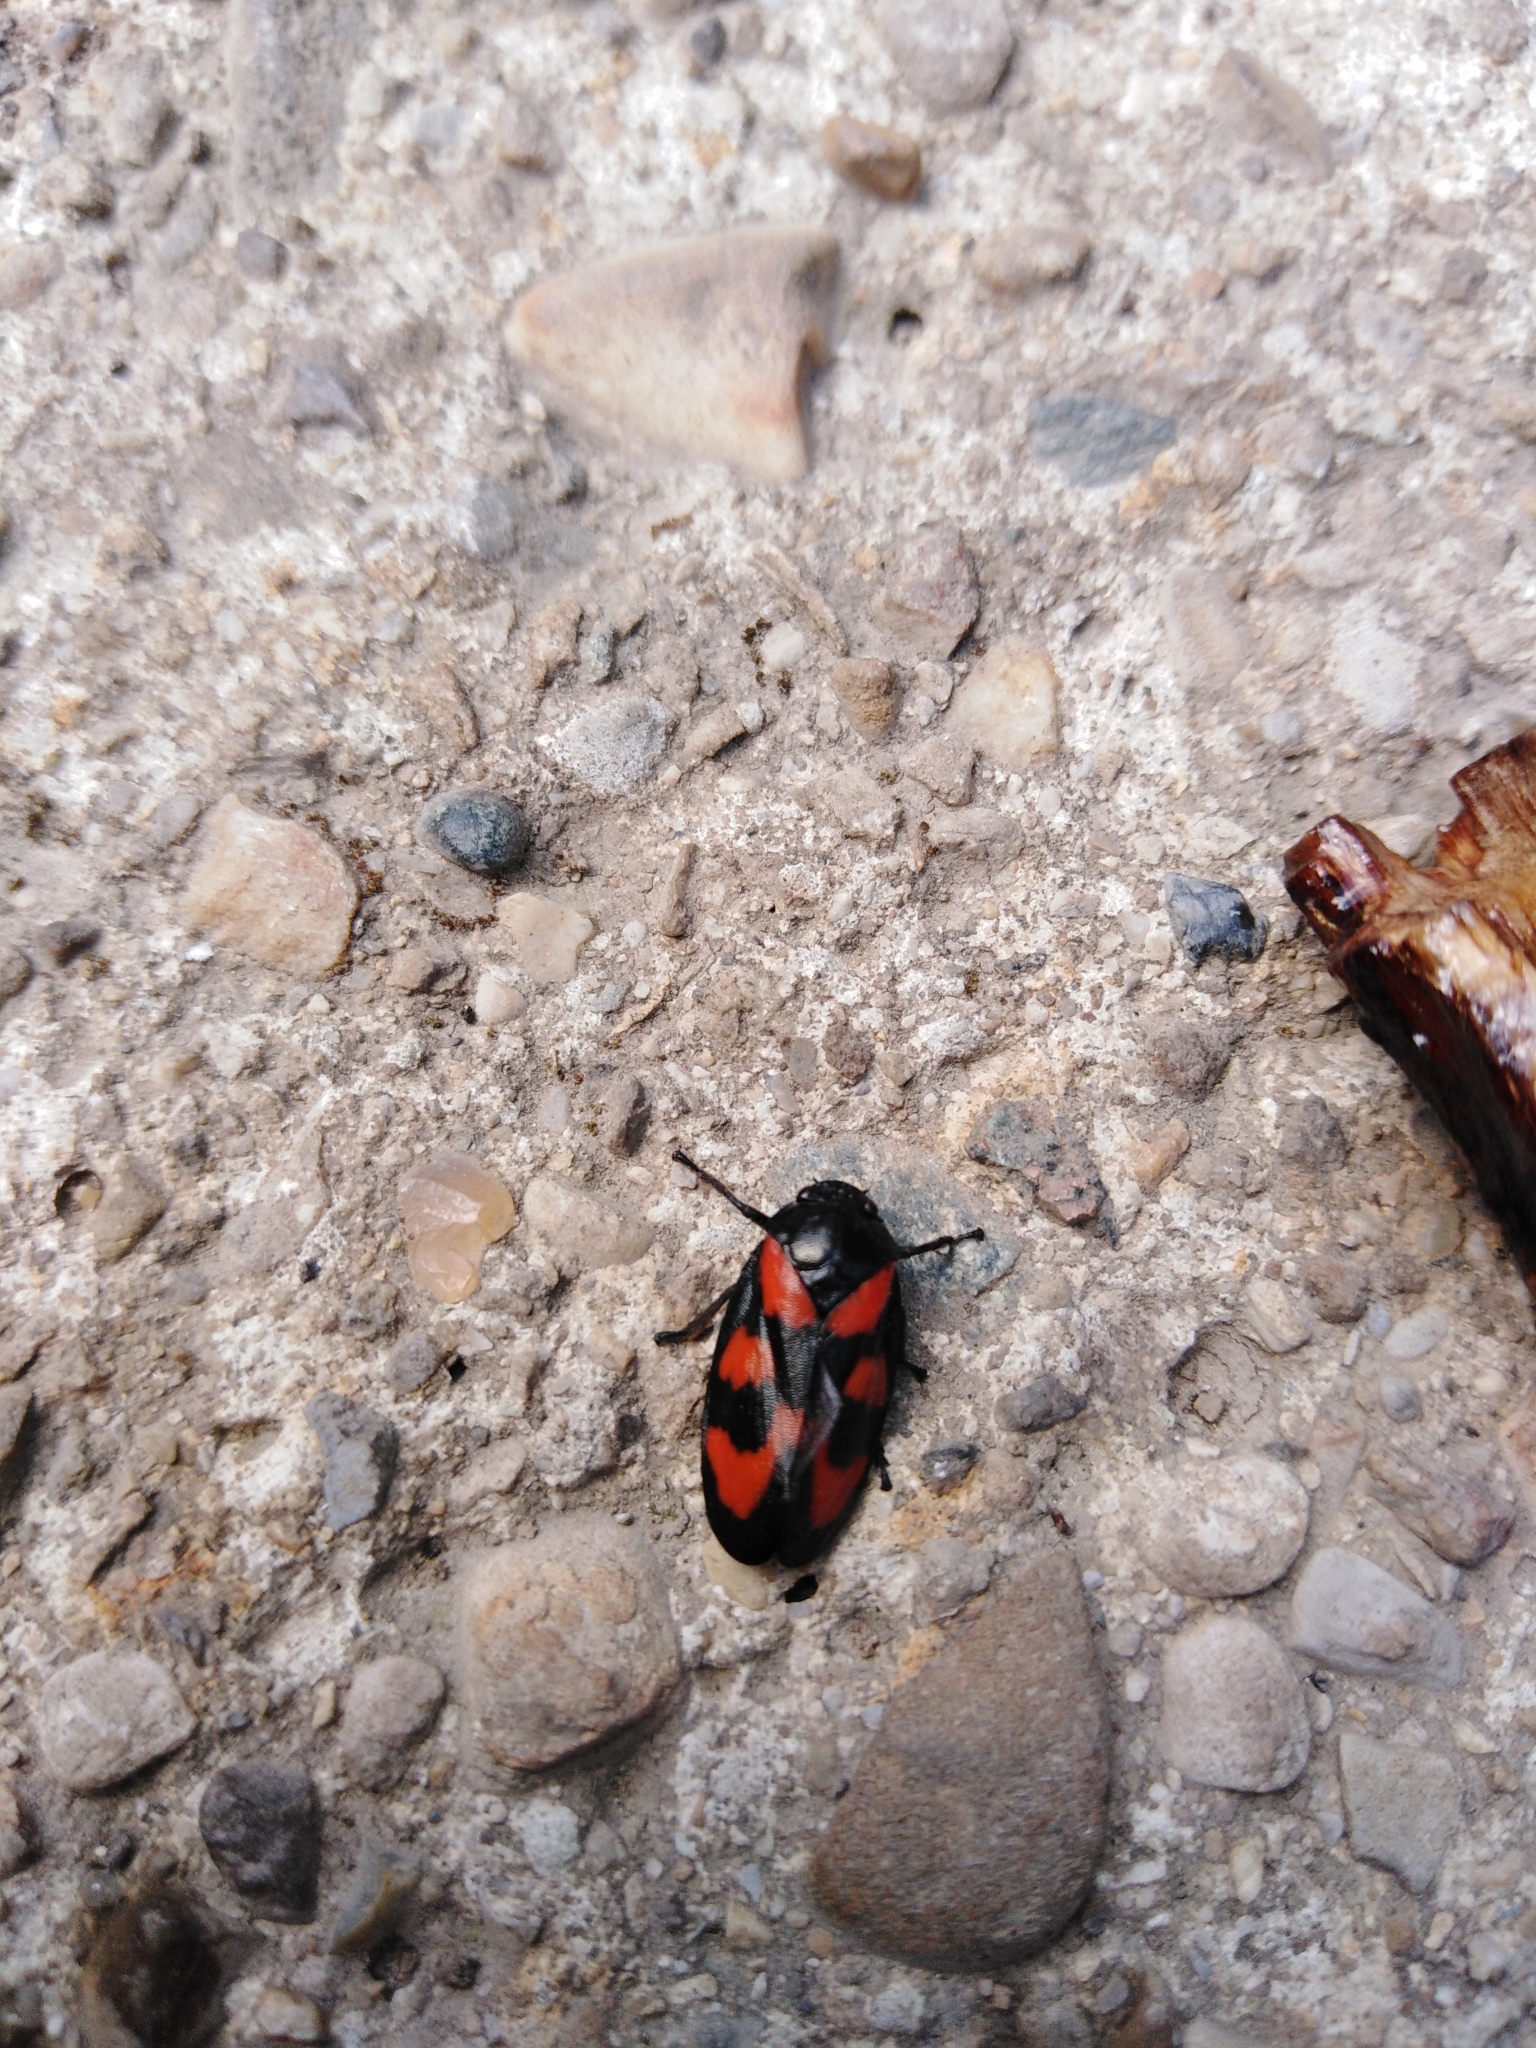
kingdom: Animalia
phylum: Arthropoda
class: Insecta
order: Hemiptera
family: Cercopidae
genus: Cercopis
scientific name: Cercopis vulnerata
